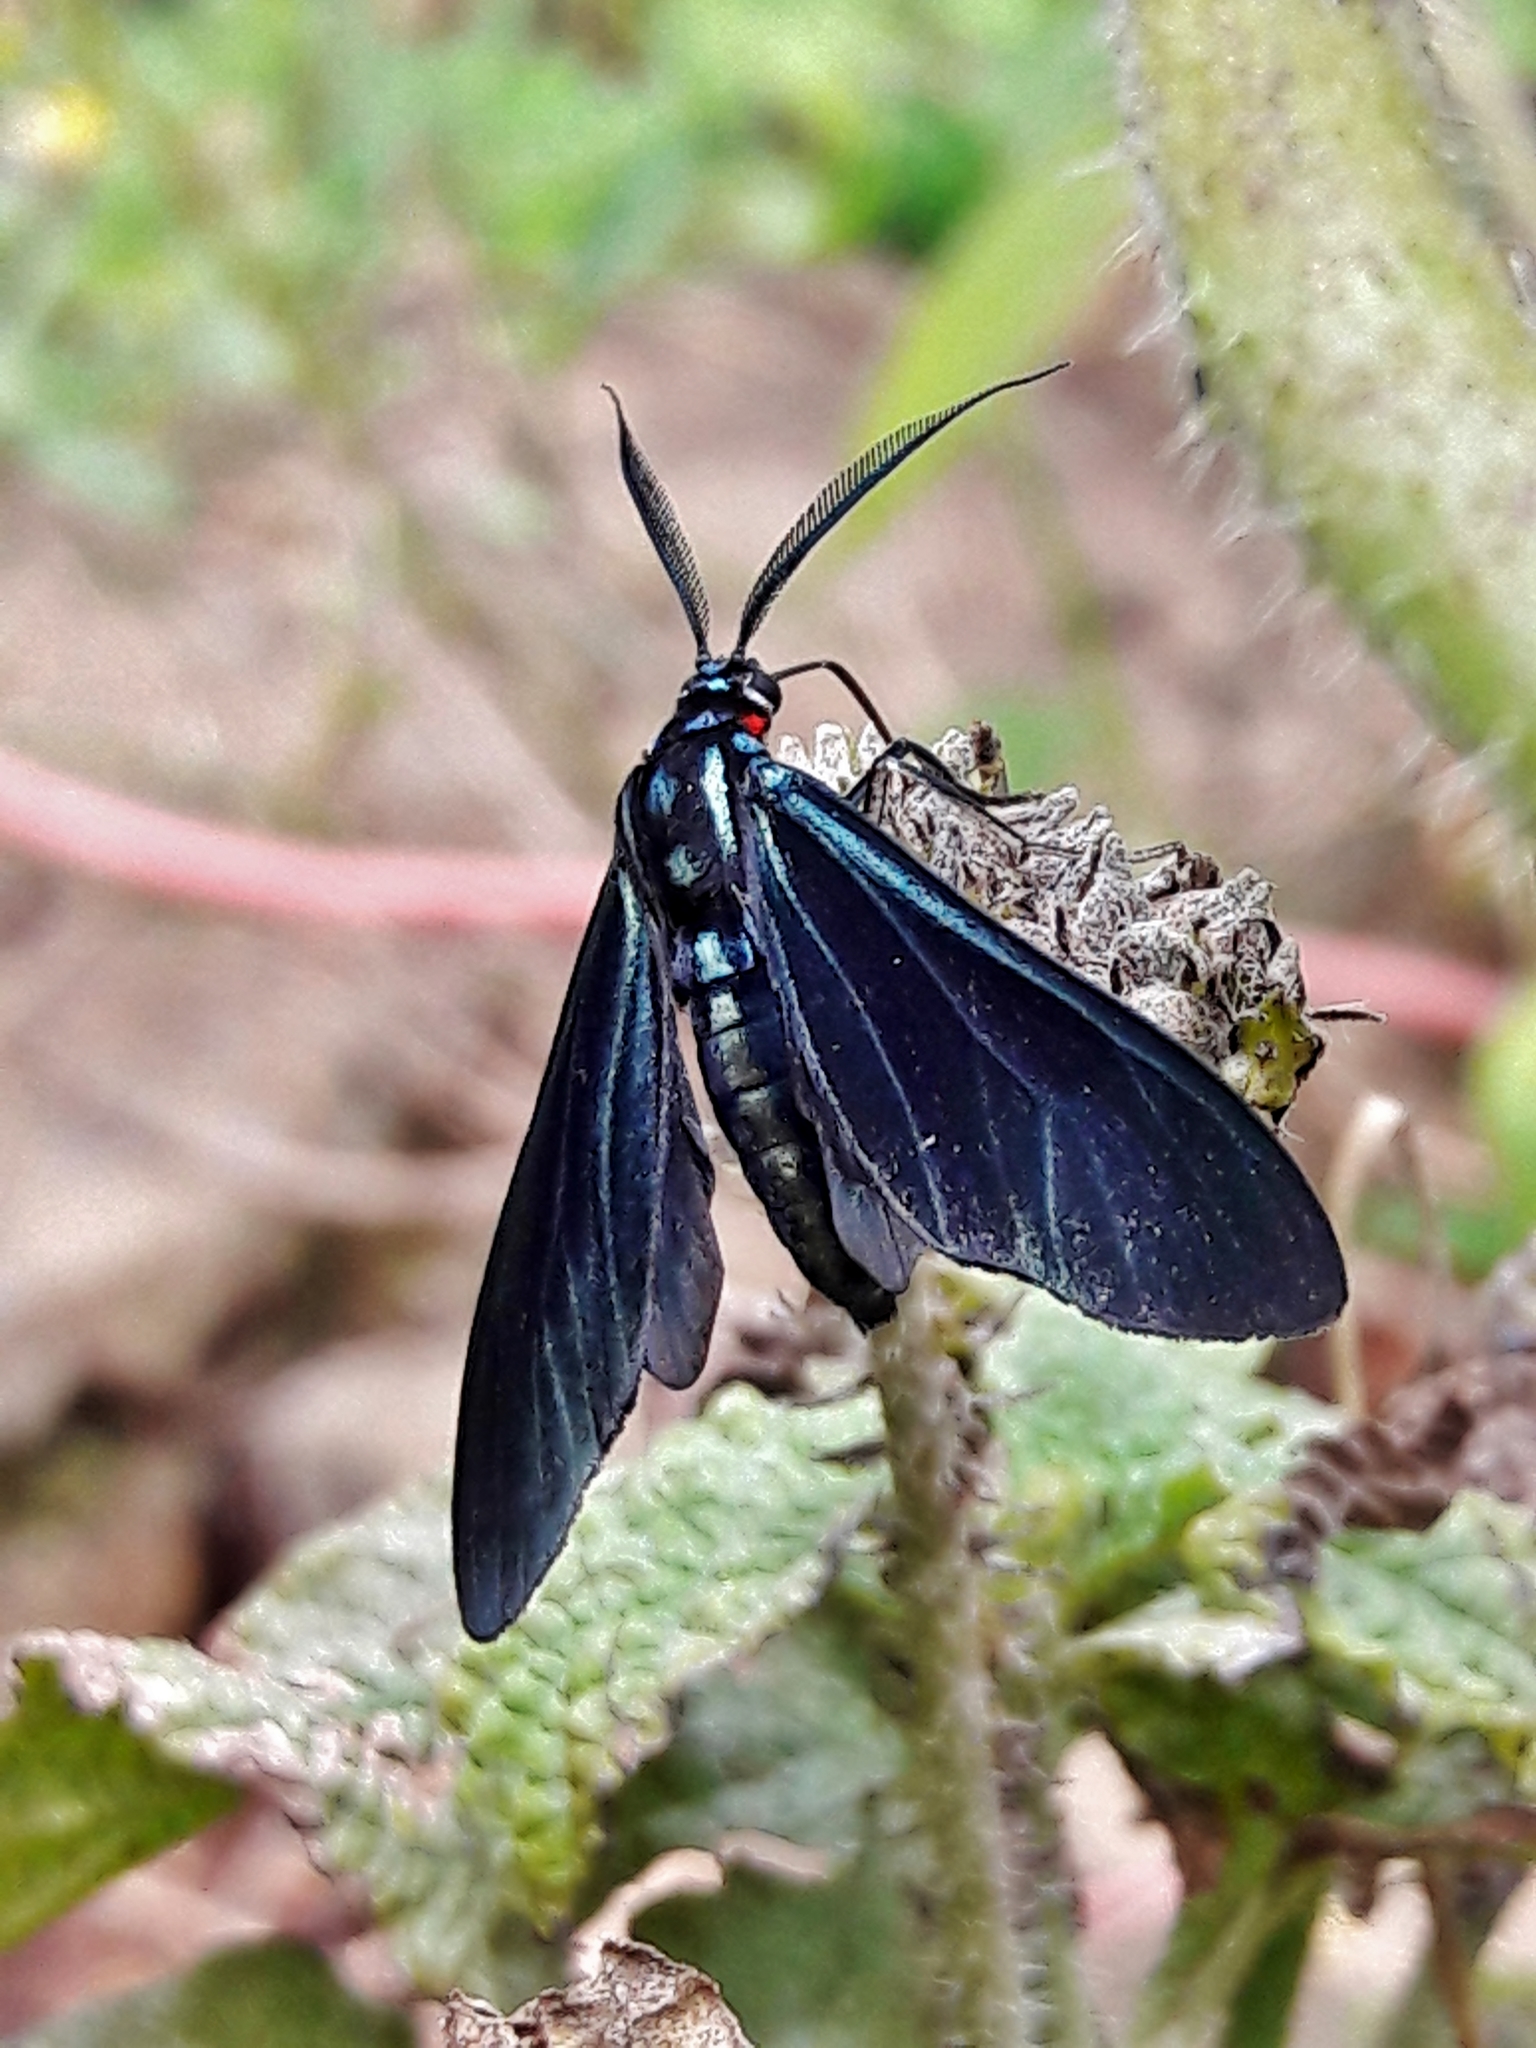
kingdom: Animalia
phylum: Arthropoda
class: Insecta
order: Lepidoptera
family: Erebidae
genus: Ctenucha
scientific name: Ctenucha rubriceps
